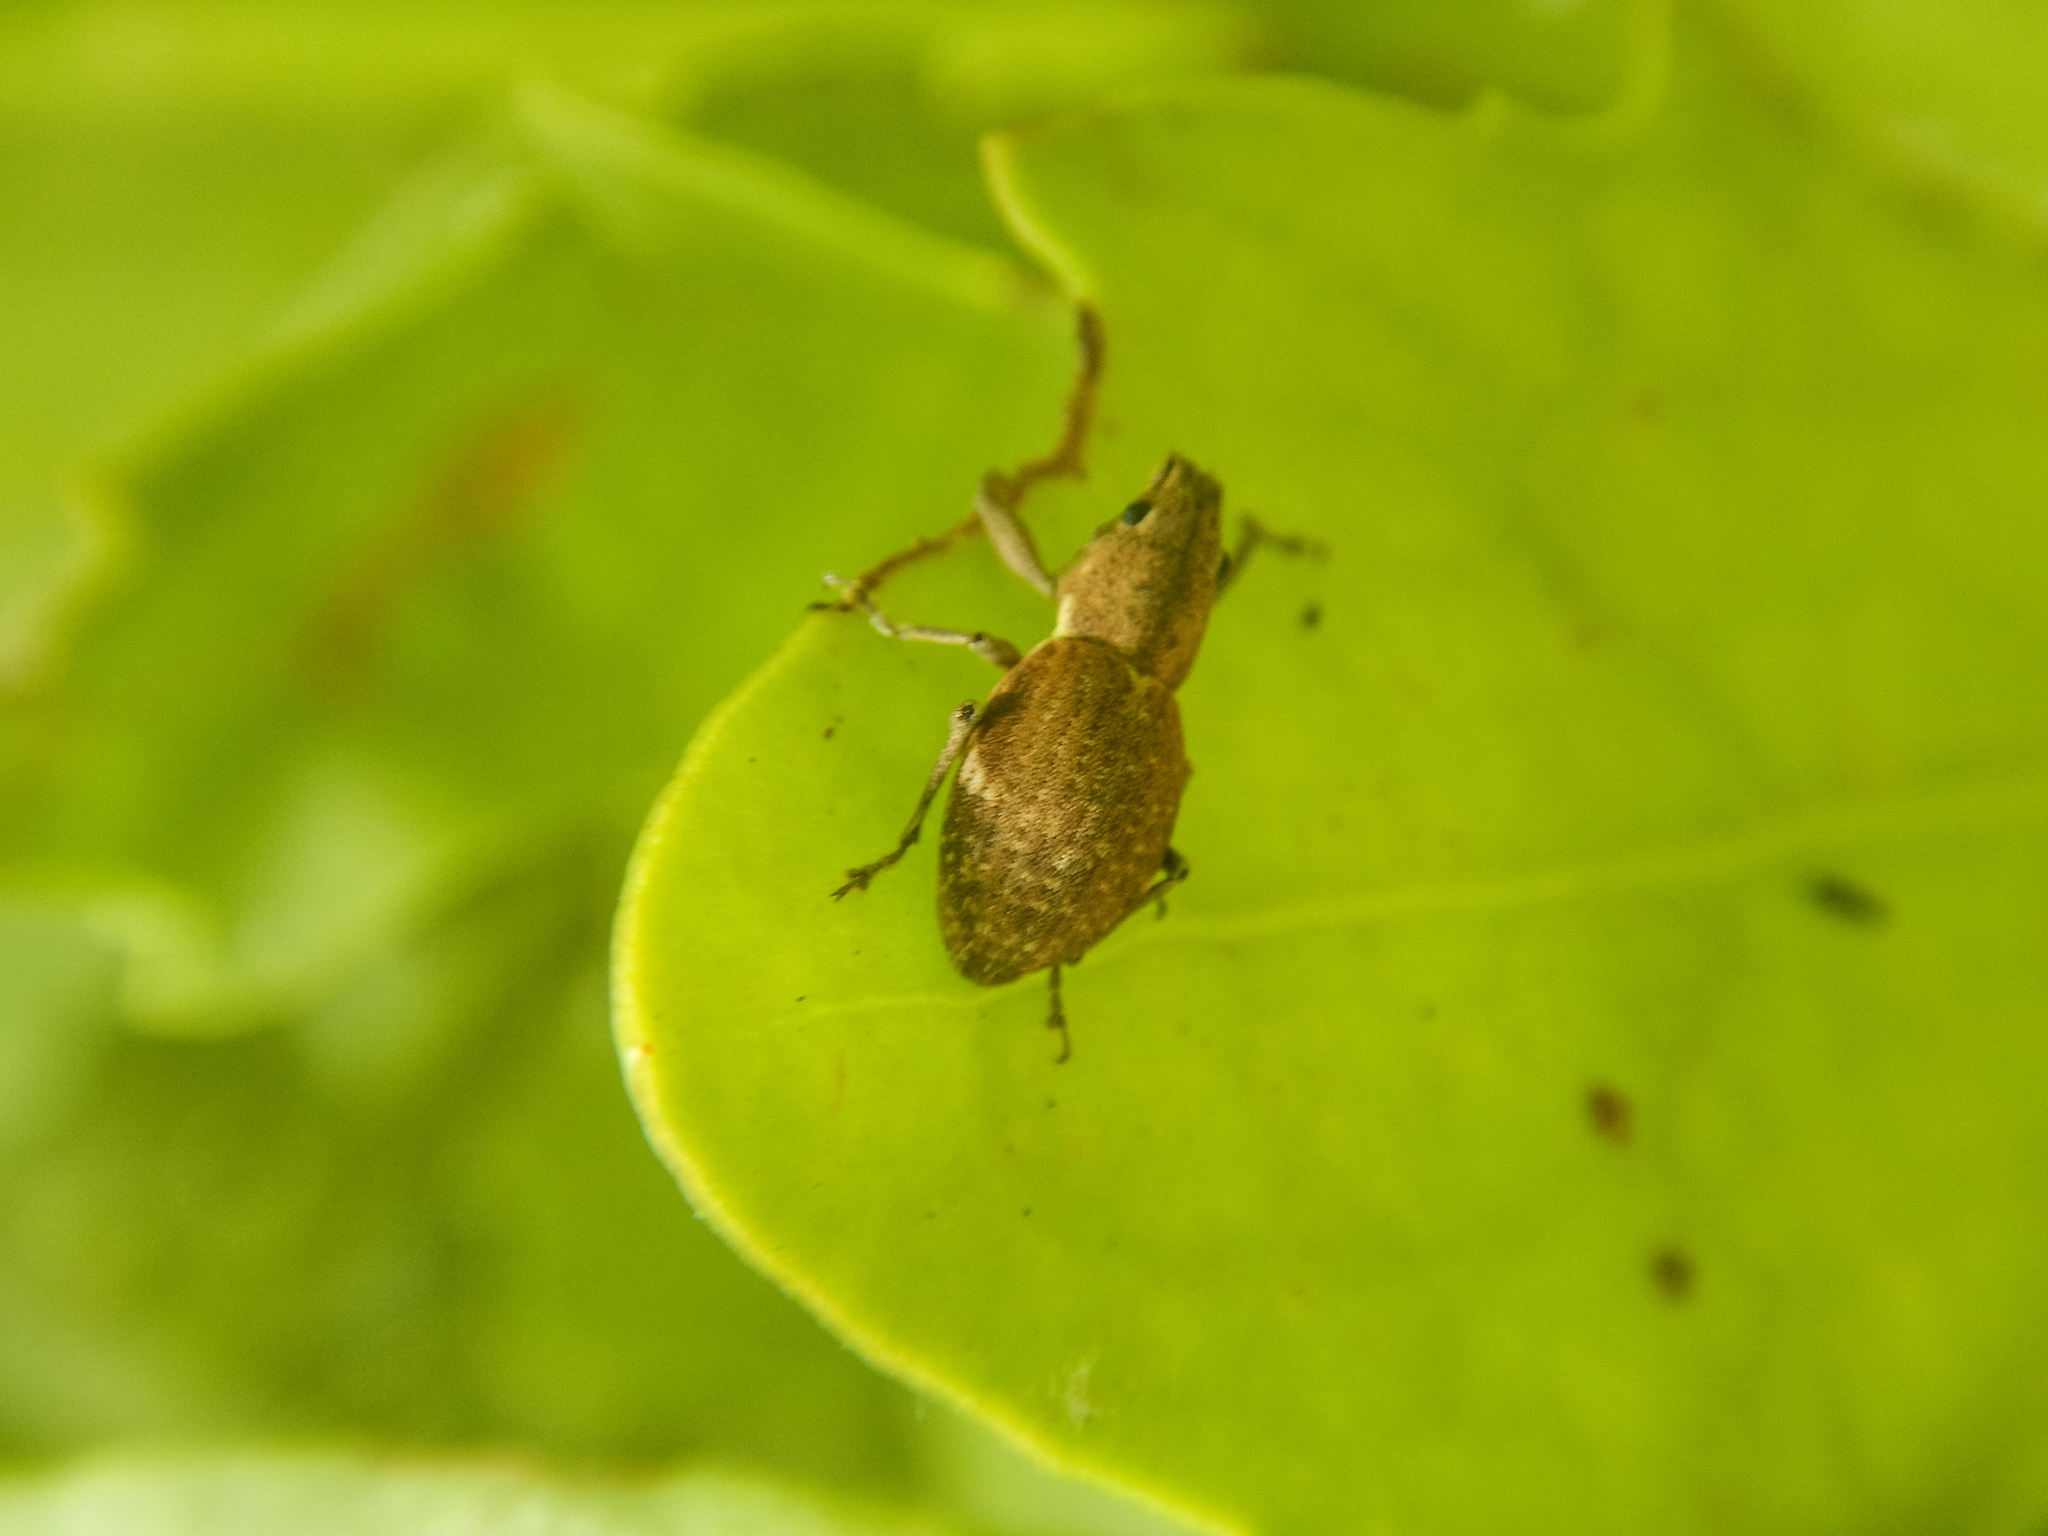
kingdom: Animalia
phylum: Arthropoda
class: Insecta
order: Coleoptera
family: Curculionidae
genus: Naupactus
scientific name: Naupactus cervinus
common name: Fuller rose beetle
